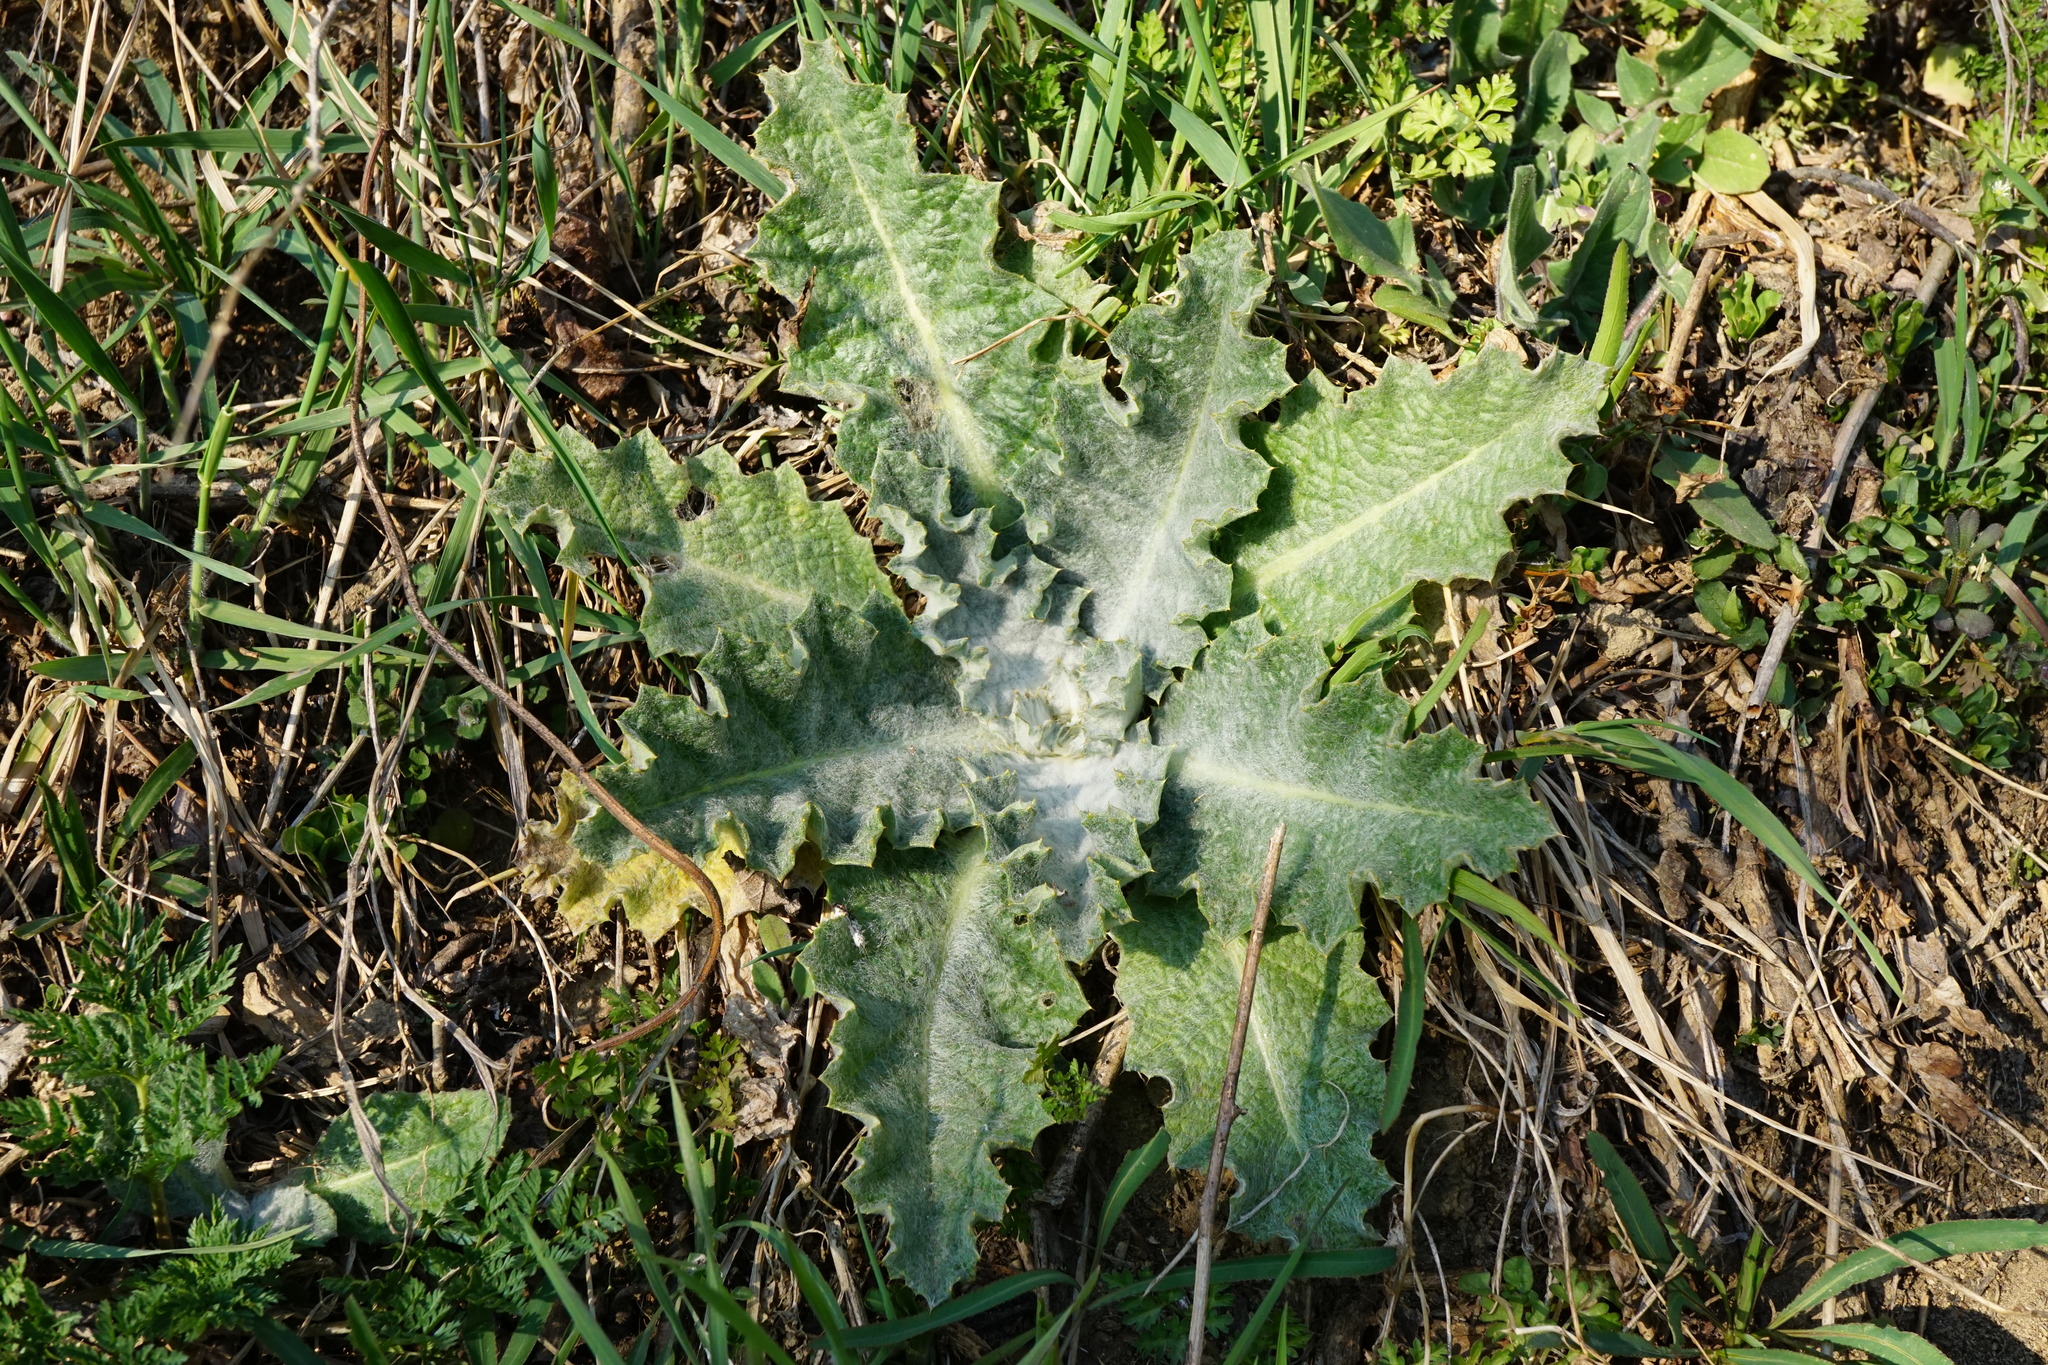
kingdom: Plantae
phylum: Tracheophyta
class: Magnoliopsida
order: Asterales
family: Asteraceae
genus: Onopordum
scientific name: Onopordum acanthium
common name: Scotch thistle
